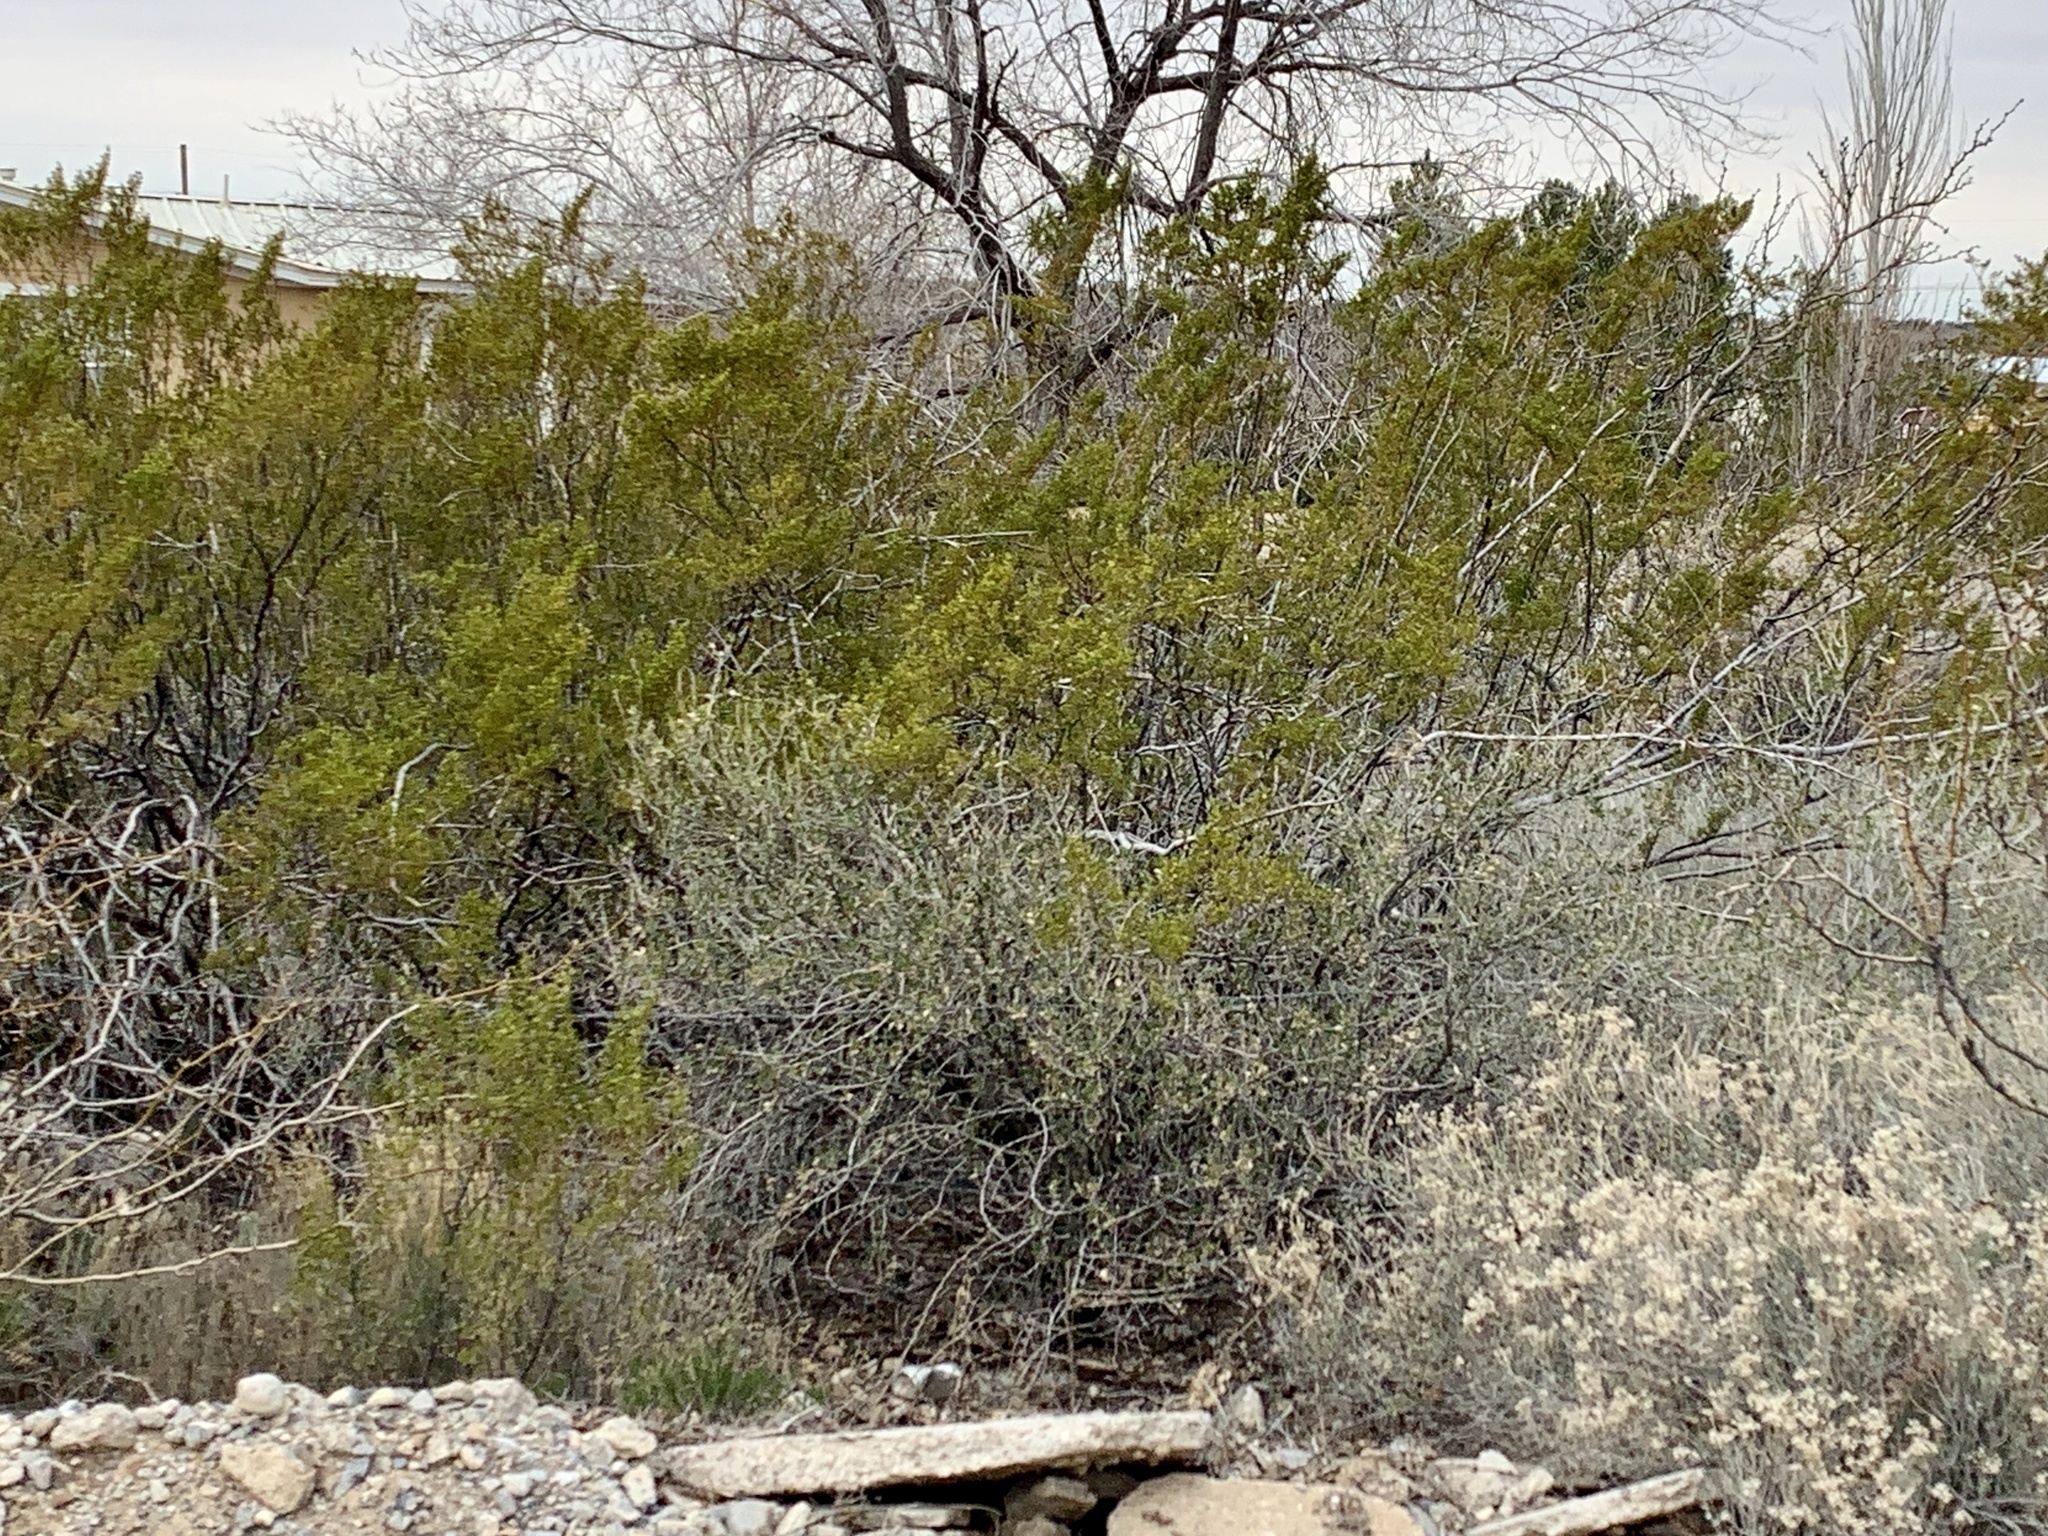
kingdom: Plantae
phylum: Tracheophyta
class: Magnoliopsida
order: Zygophyllales
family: Zygophyllaceae
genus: Larrea
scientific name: Larrea tridentata
